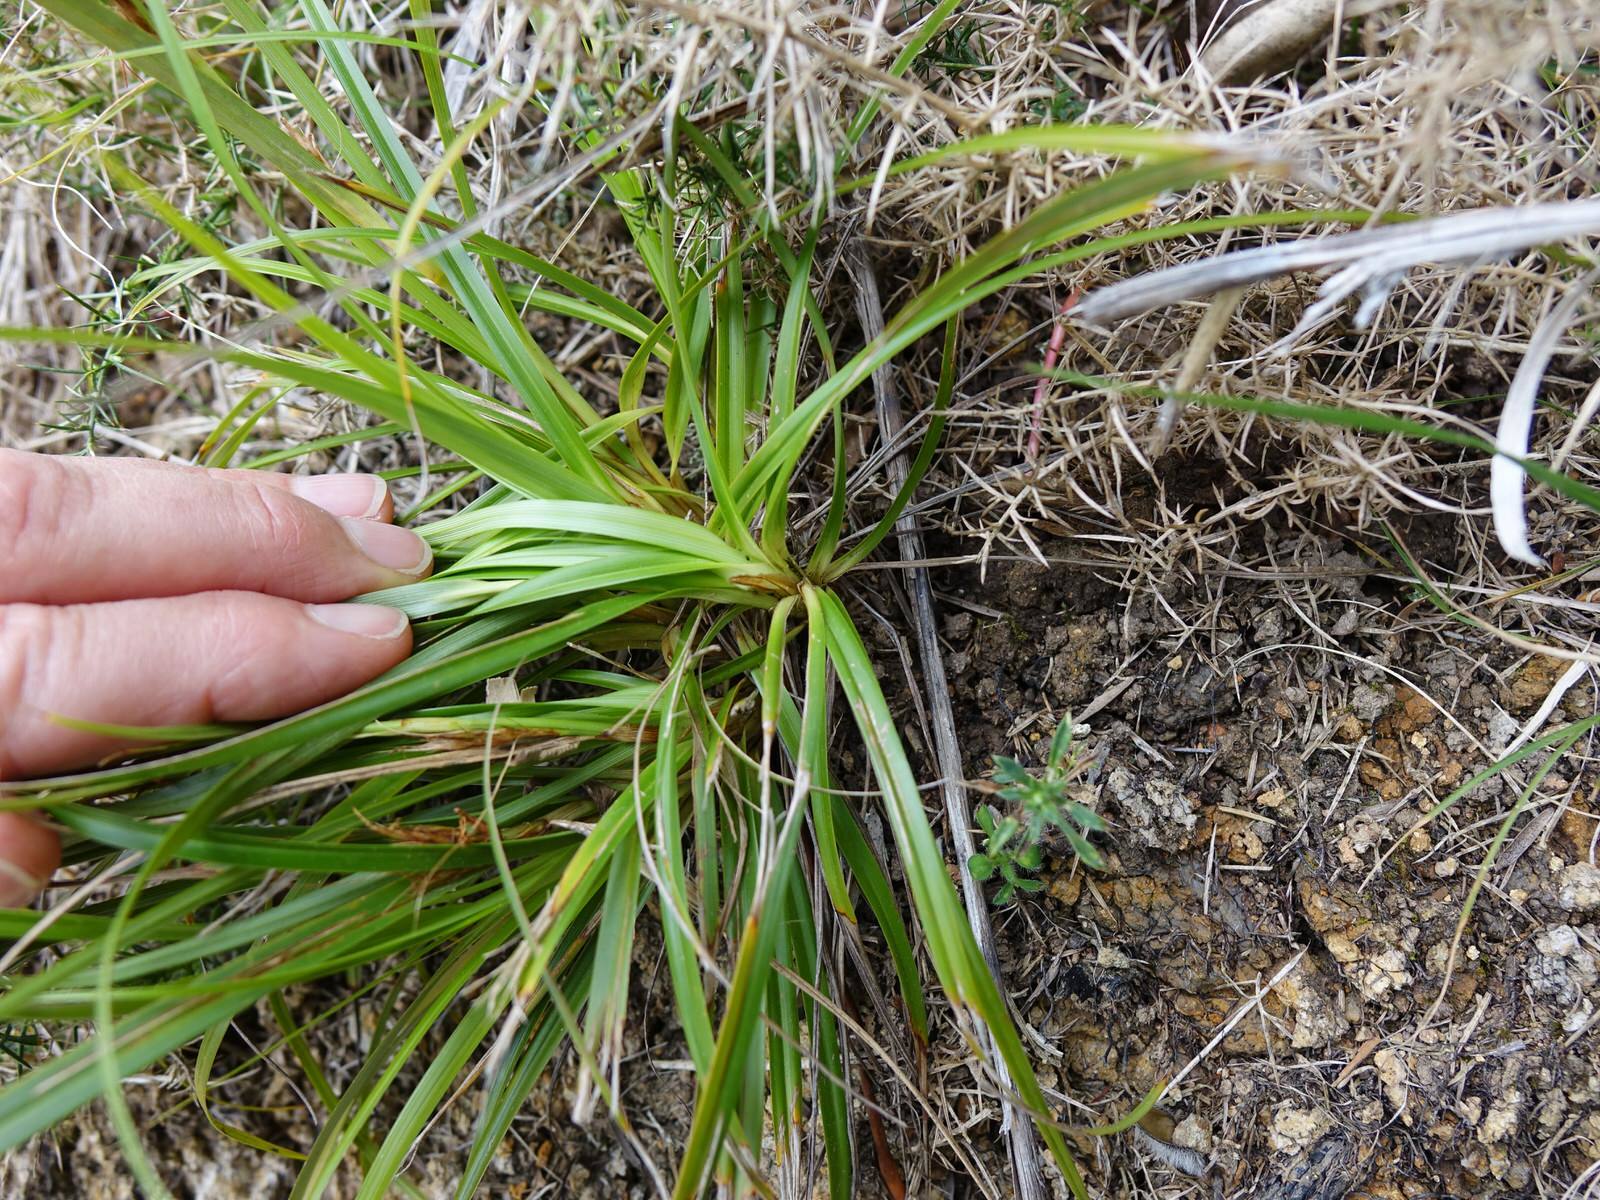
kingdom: Plantae
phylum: Tracheophyta
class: Liliopsida
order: Poales
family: Cyperaceae
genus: Morelotia
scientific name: Morelotia affinis
